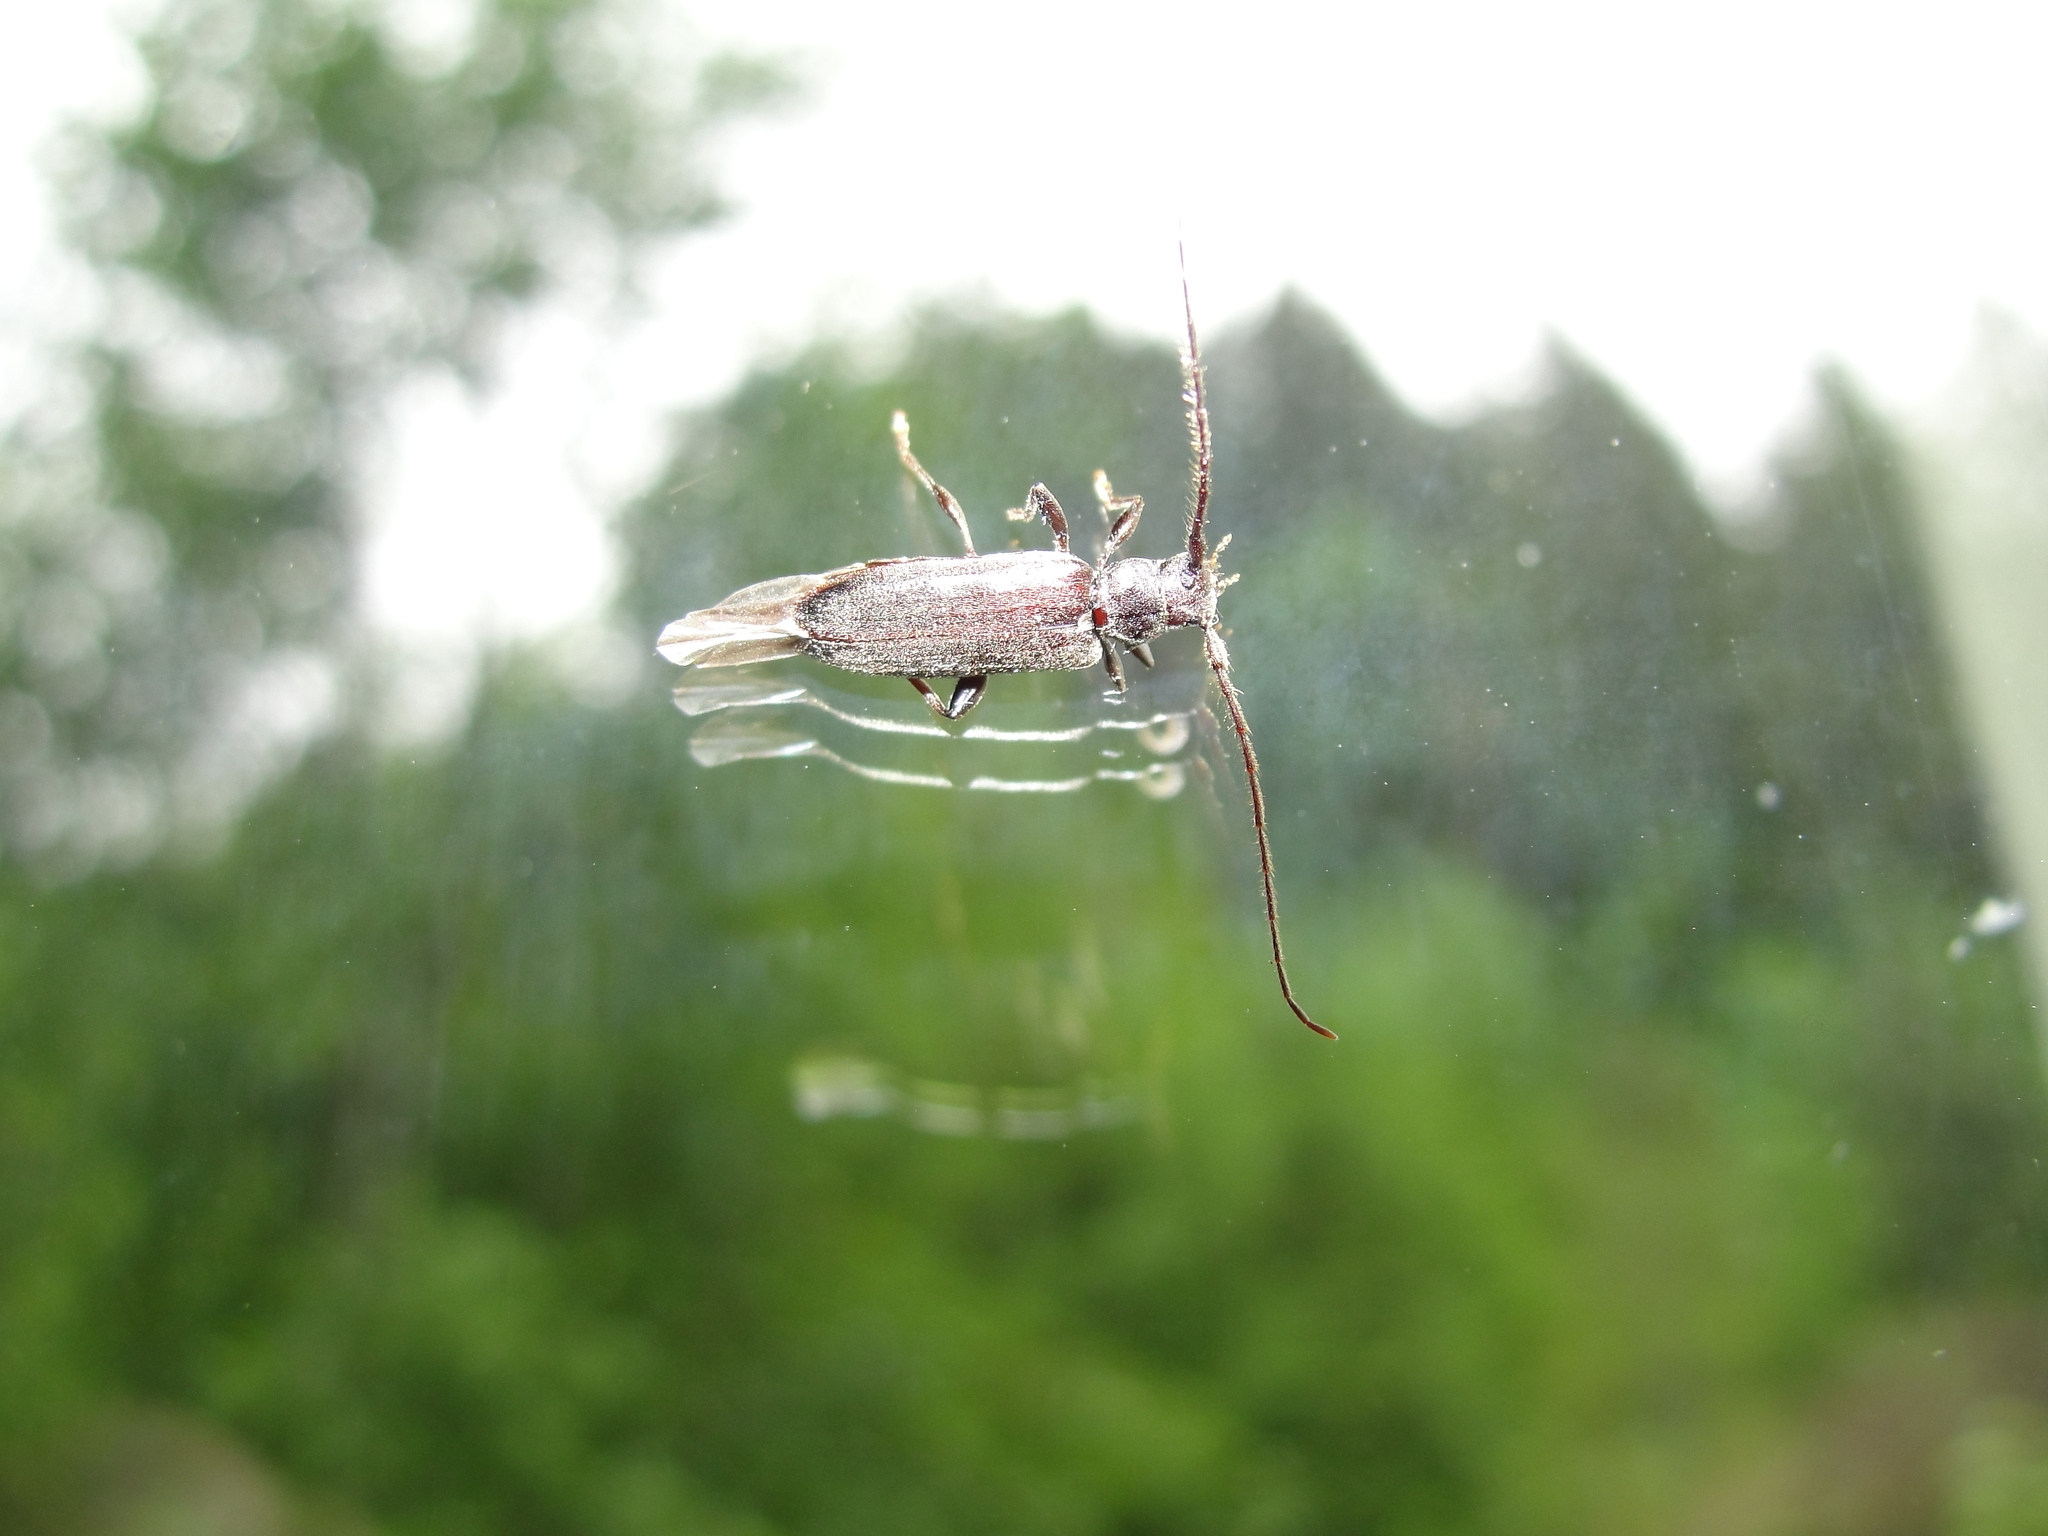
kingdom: Animalia
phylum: Arthropoda
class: Insecta
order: Coleoptera
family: Cerambycidae
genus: Opsimus
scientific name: Opsimus quadrilineatus
